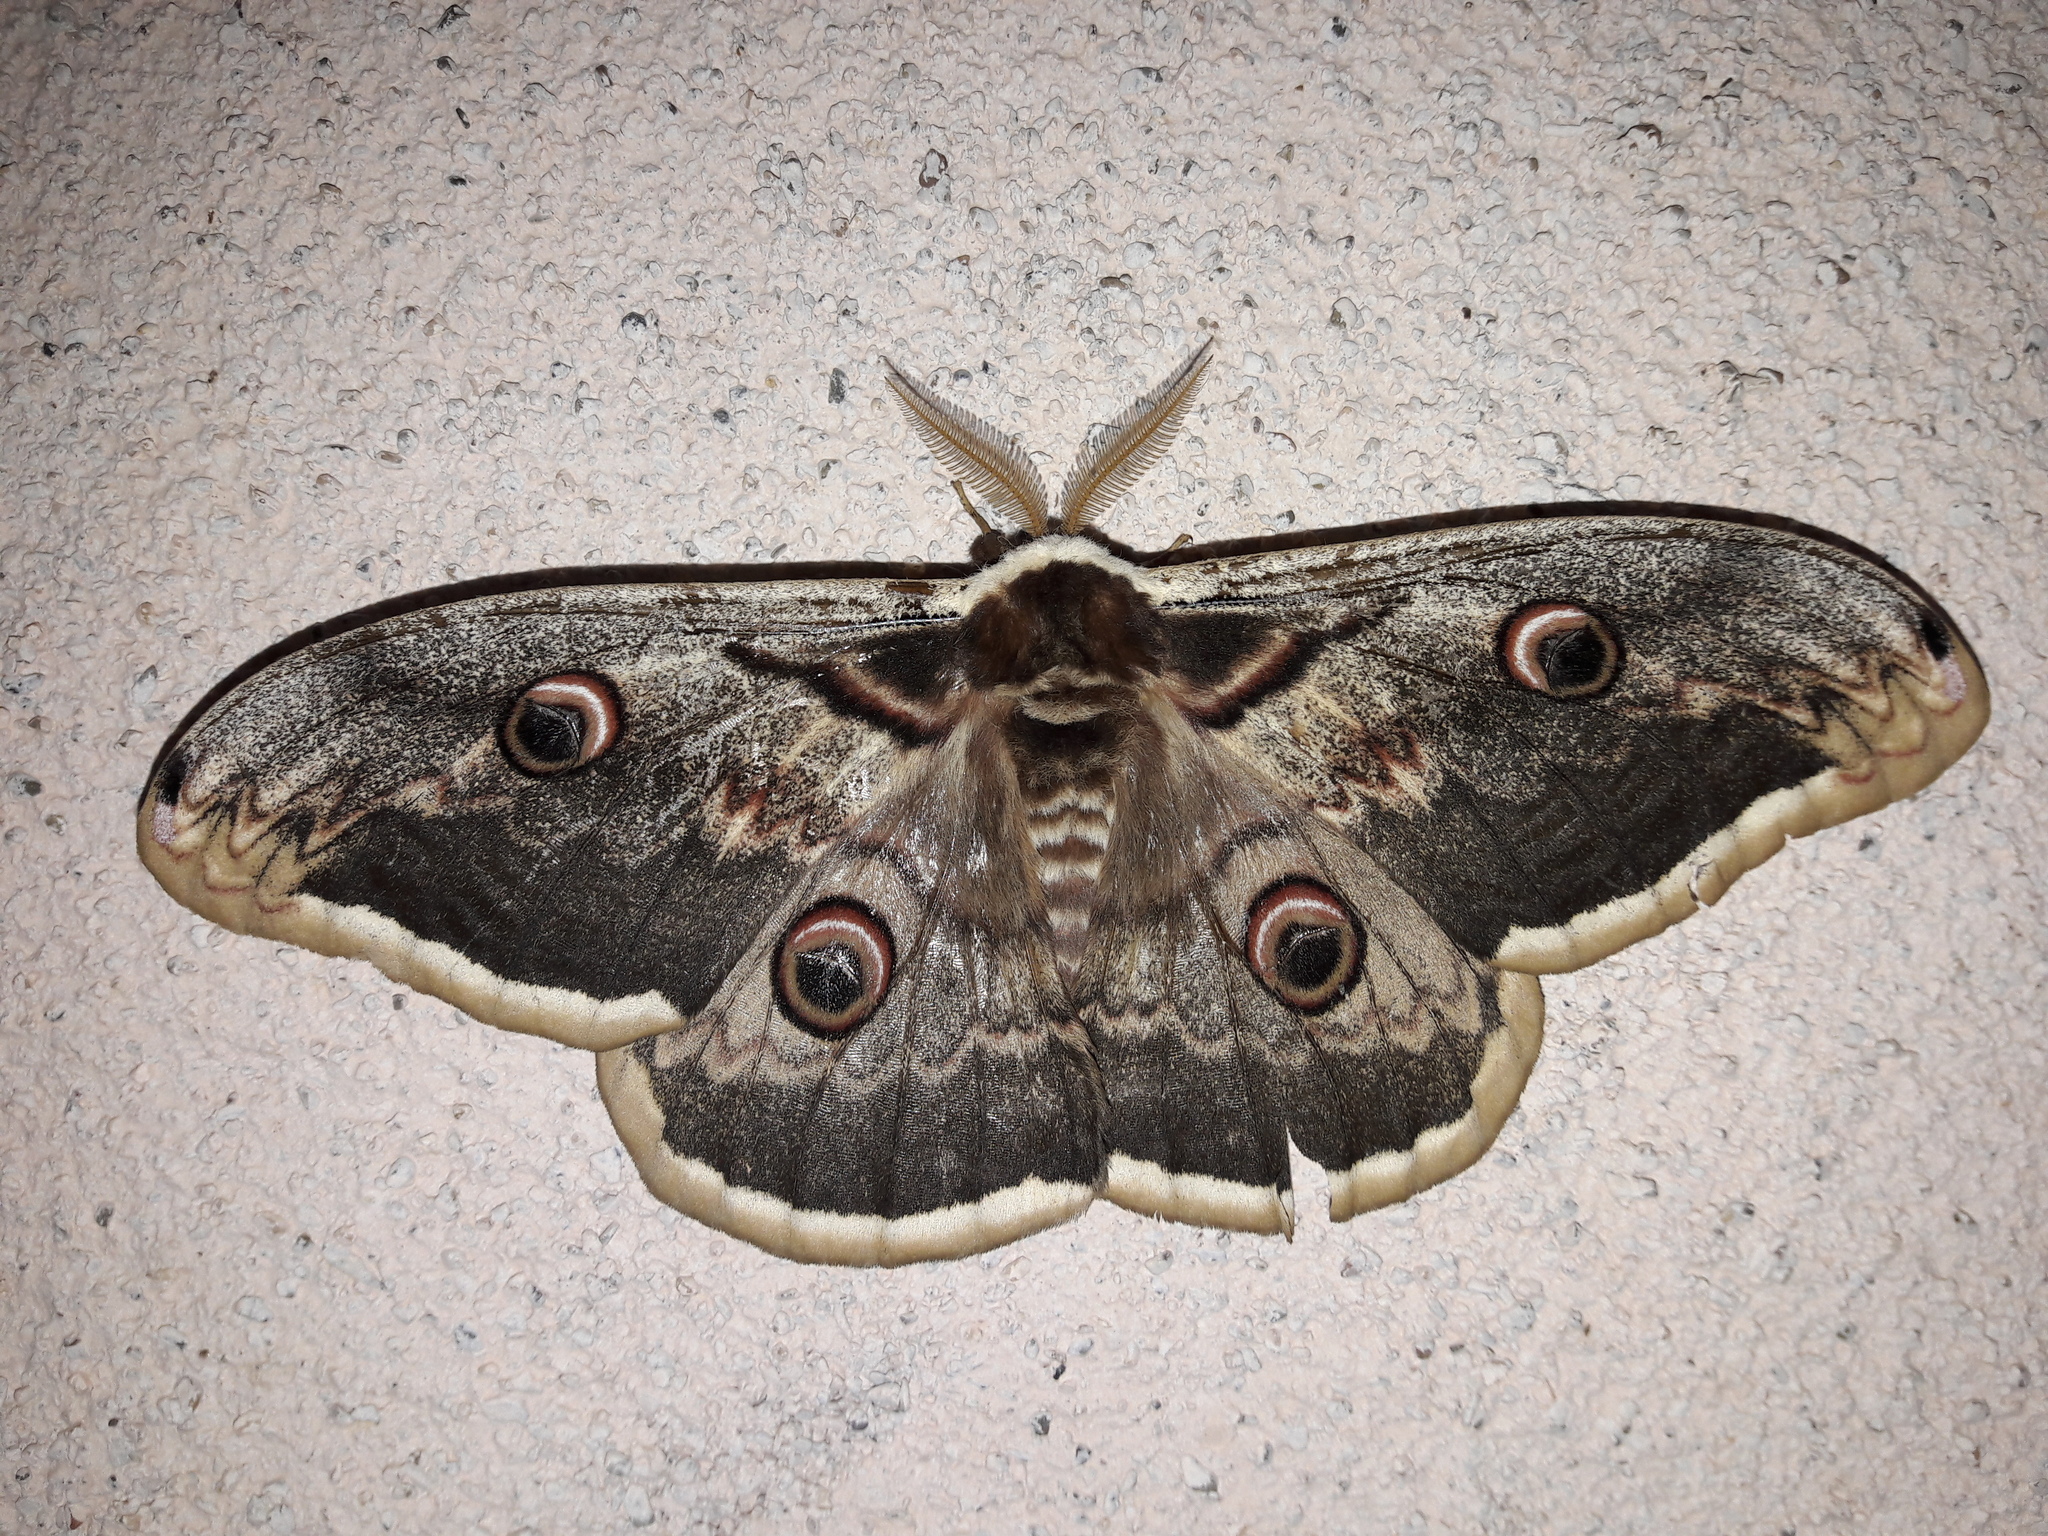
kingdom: Animalia
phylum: Arthropoda
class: Insecta
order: Lepidoptera
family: Saturniidae
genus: Saturnia
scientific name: Saturnia pyri
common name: Great peacock moth
